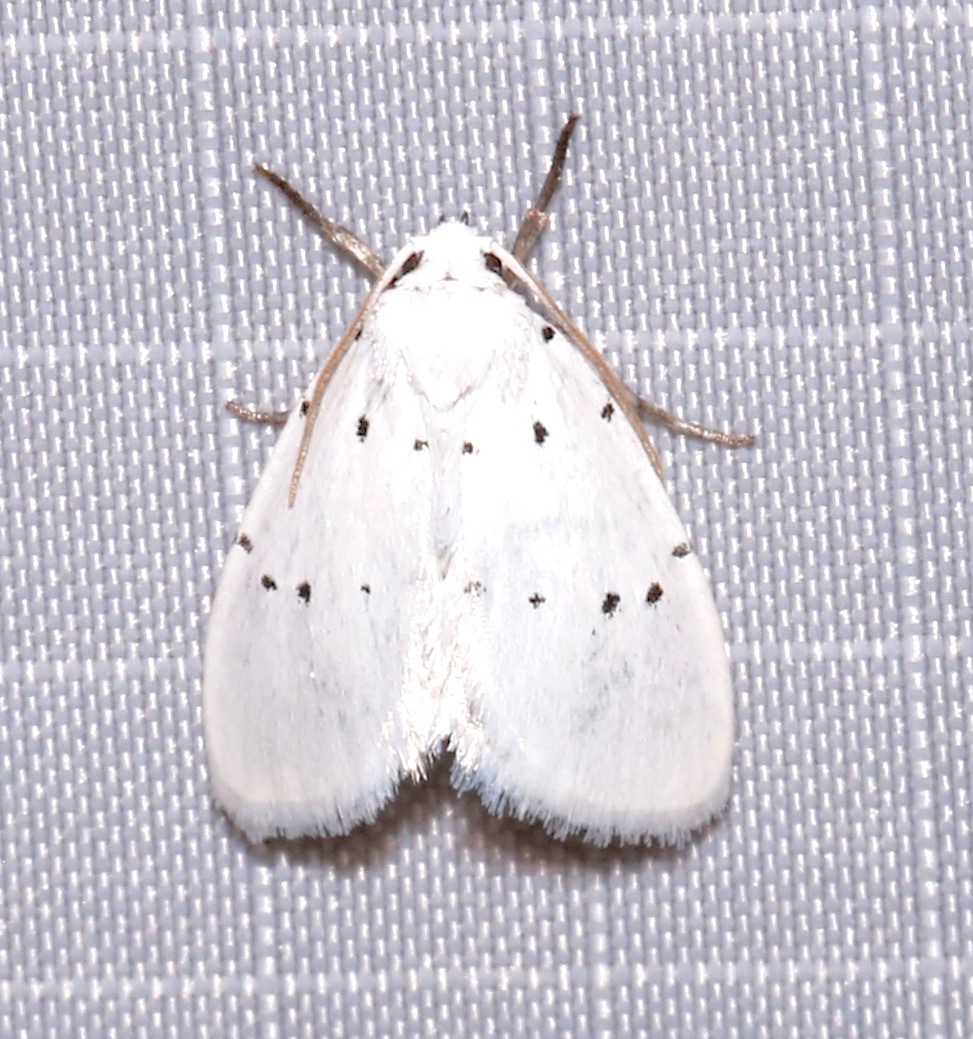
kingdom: Animalia
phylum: Arthropoda
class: Insecta
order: Lepidoptera
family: Noctuidae
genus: Homolagoa
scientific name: Homolagoa grotelliformis
